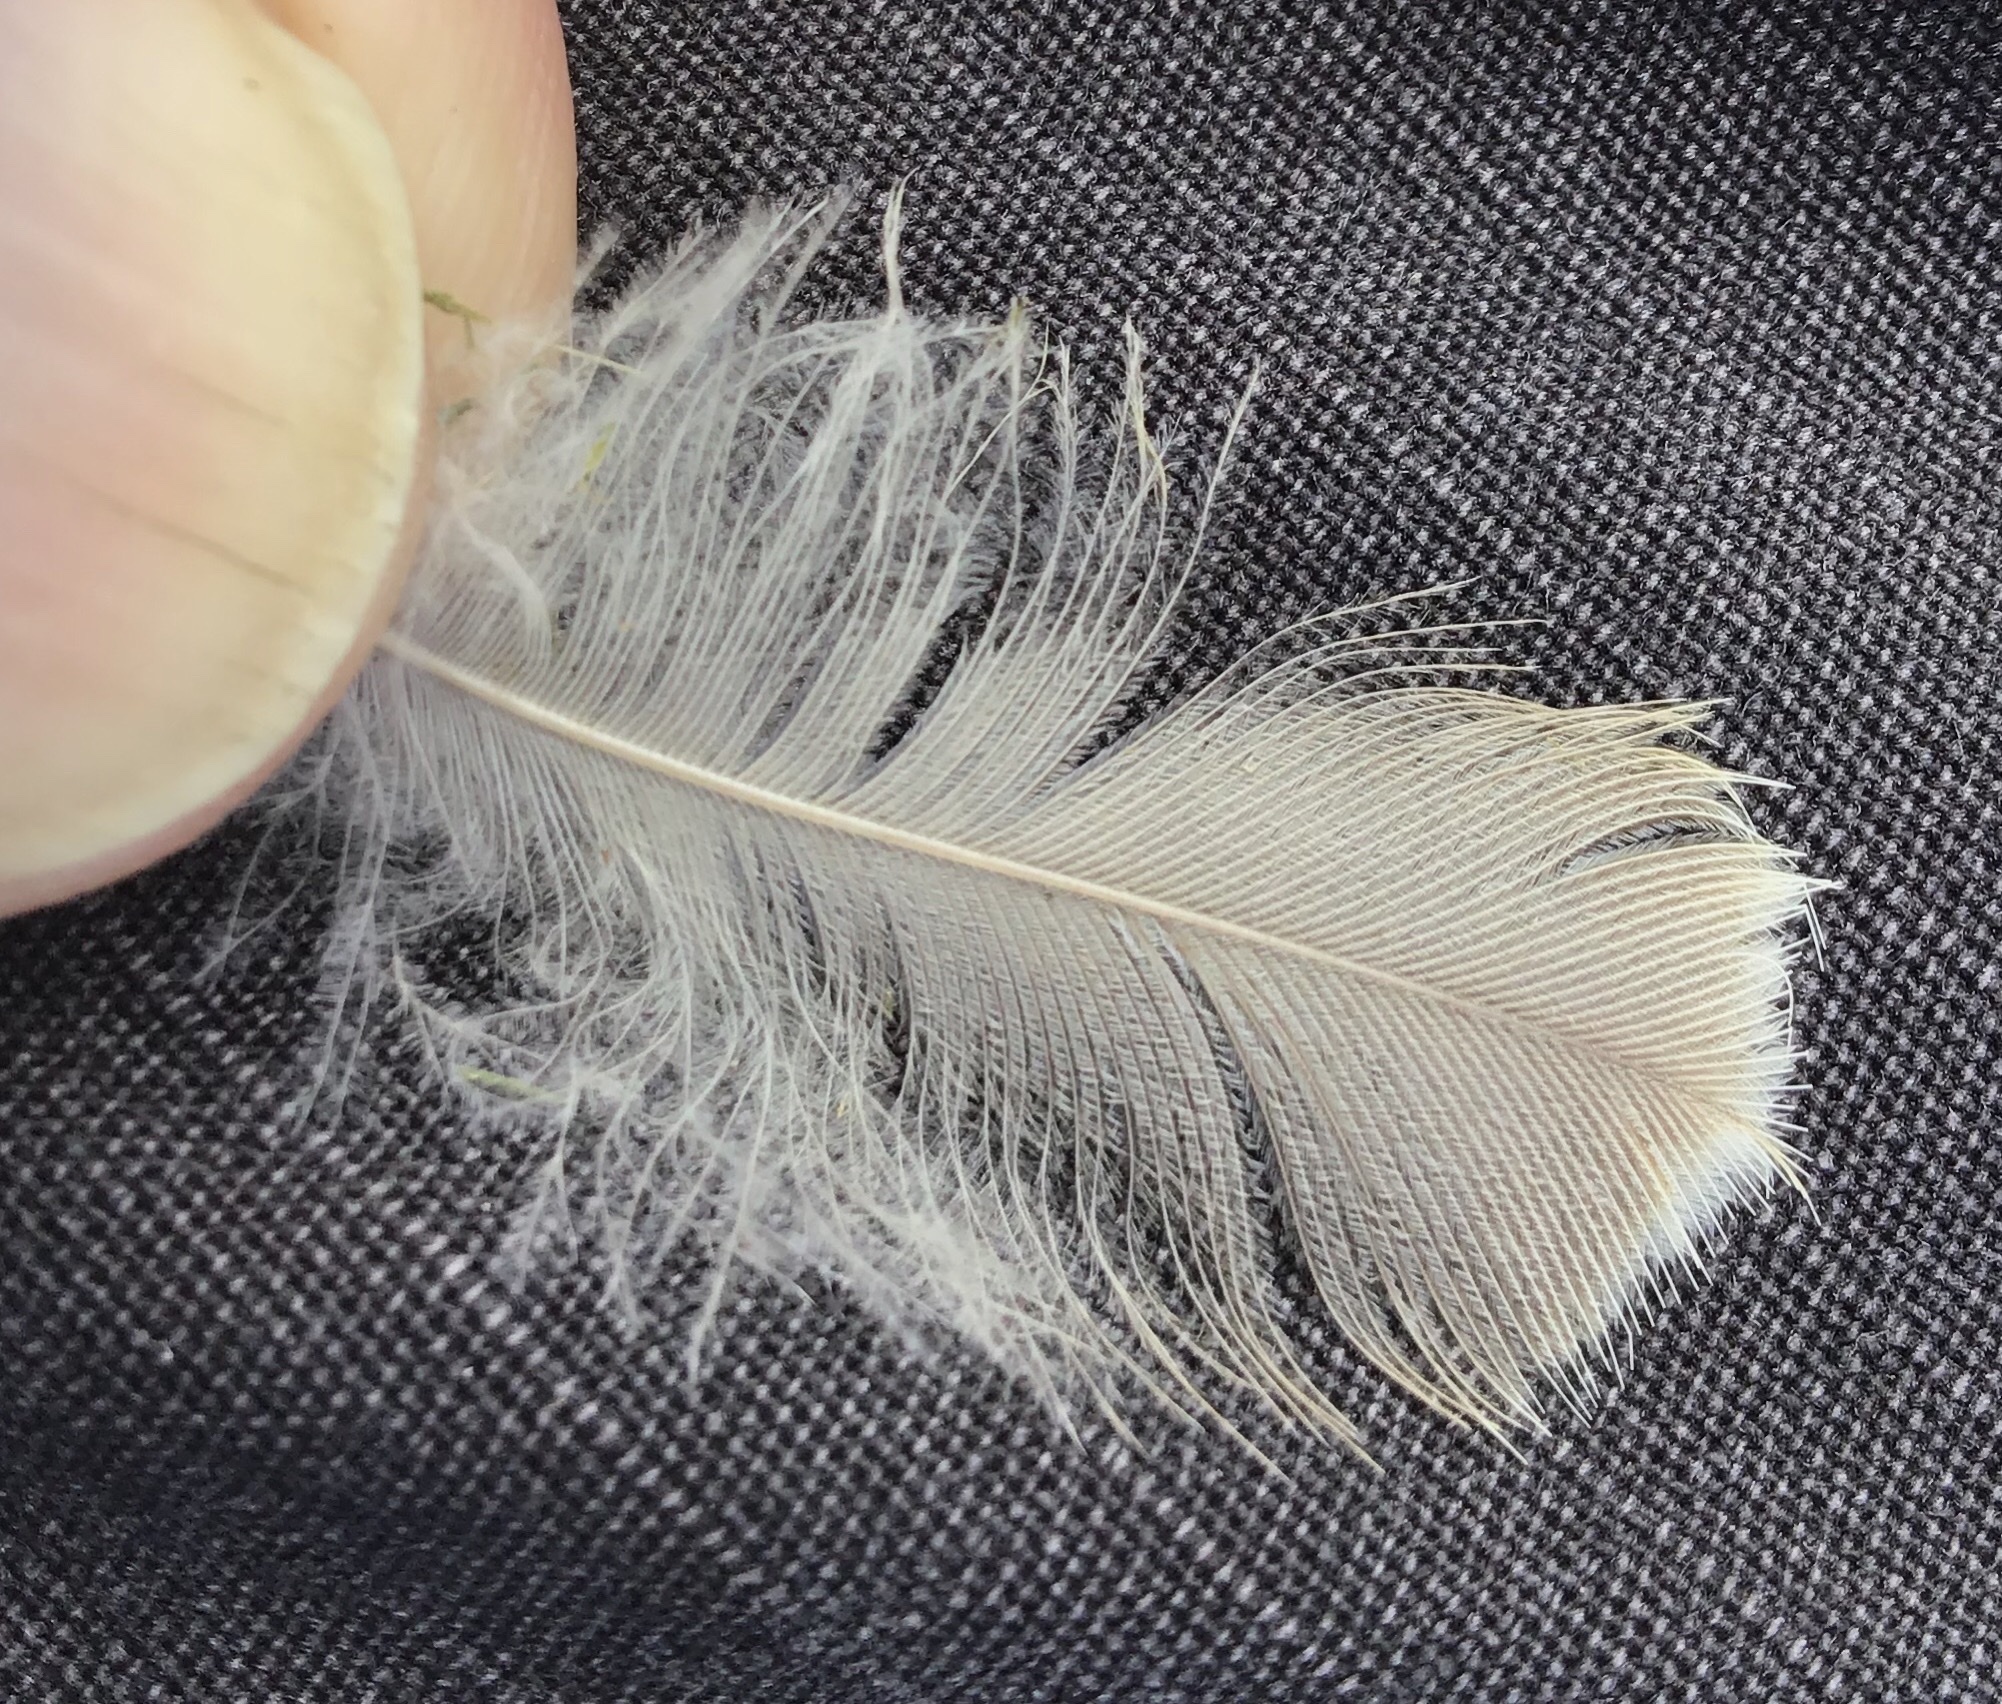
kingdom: Animalia
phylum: Chordata
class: Aves
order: Anseriformes
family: Anatidae
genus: Branta
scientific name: Branta canadensis
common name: Canada goose
